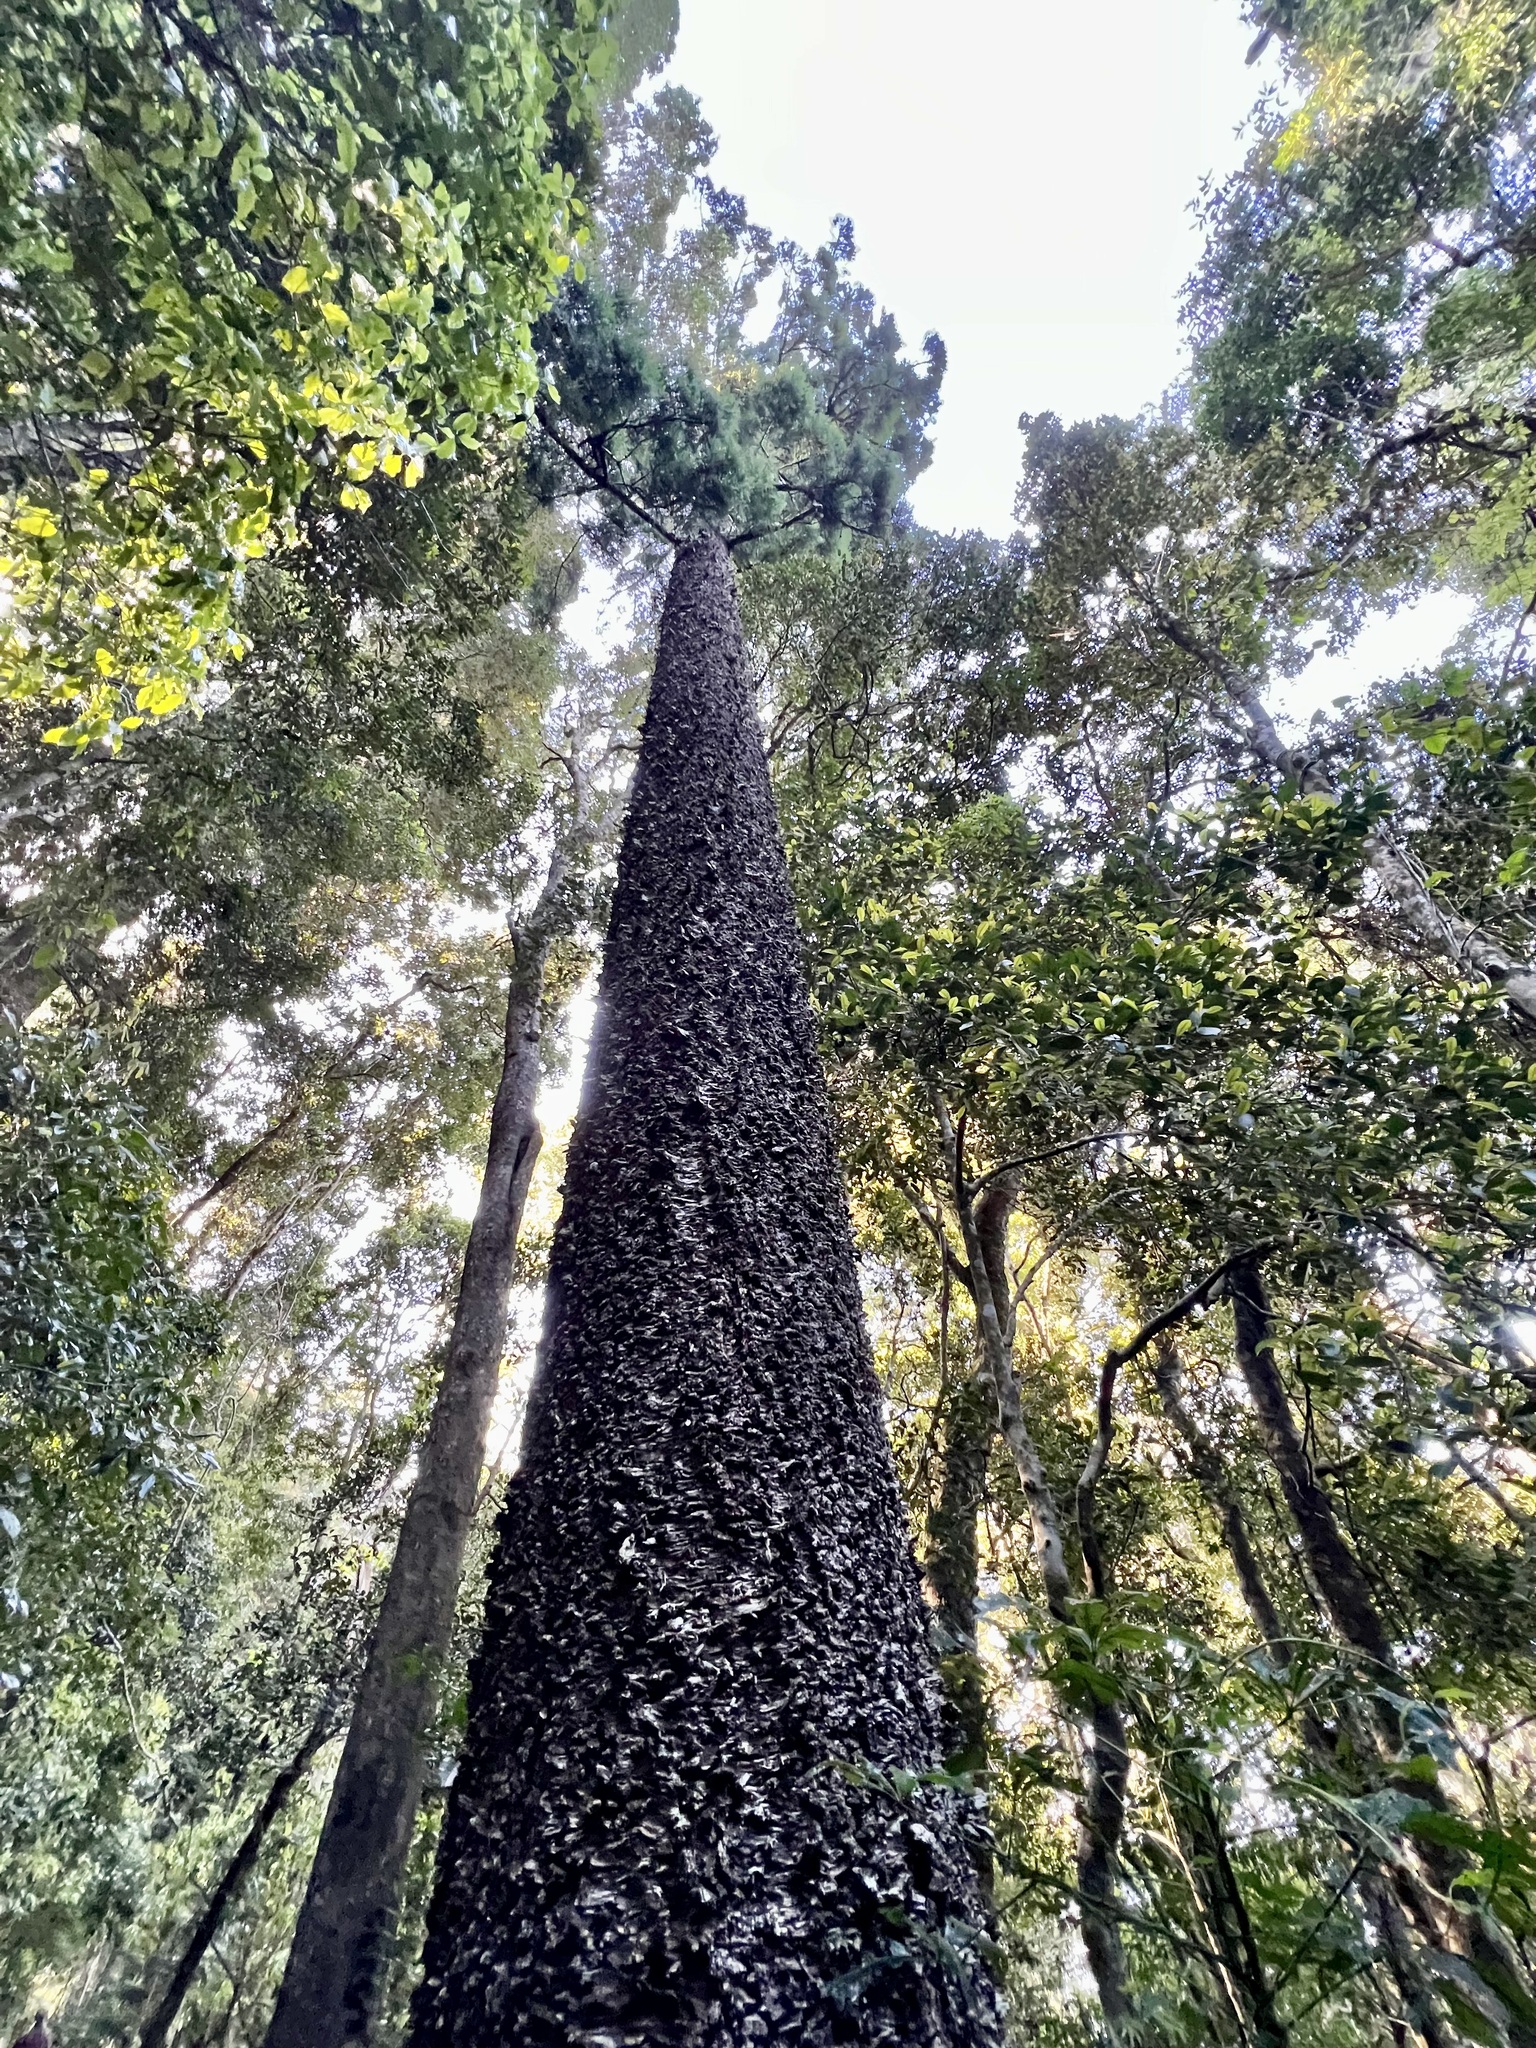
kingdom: Plantae
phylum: Tracheophyta
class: Pinopsida
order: Pinales
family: Araucariaceae
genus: Araucaria
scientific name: Araucaria cunninghamii
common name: Colonial pine
